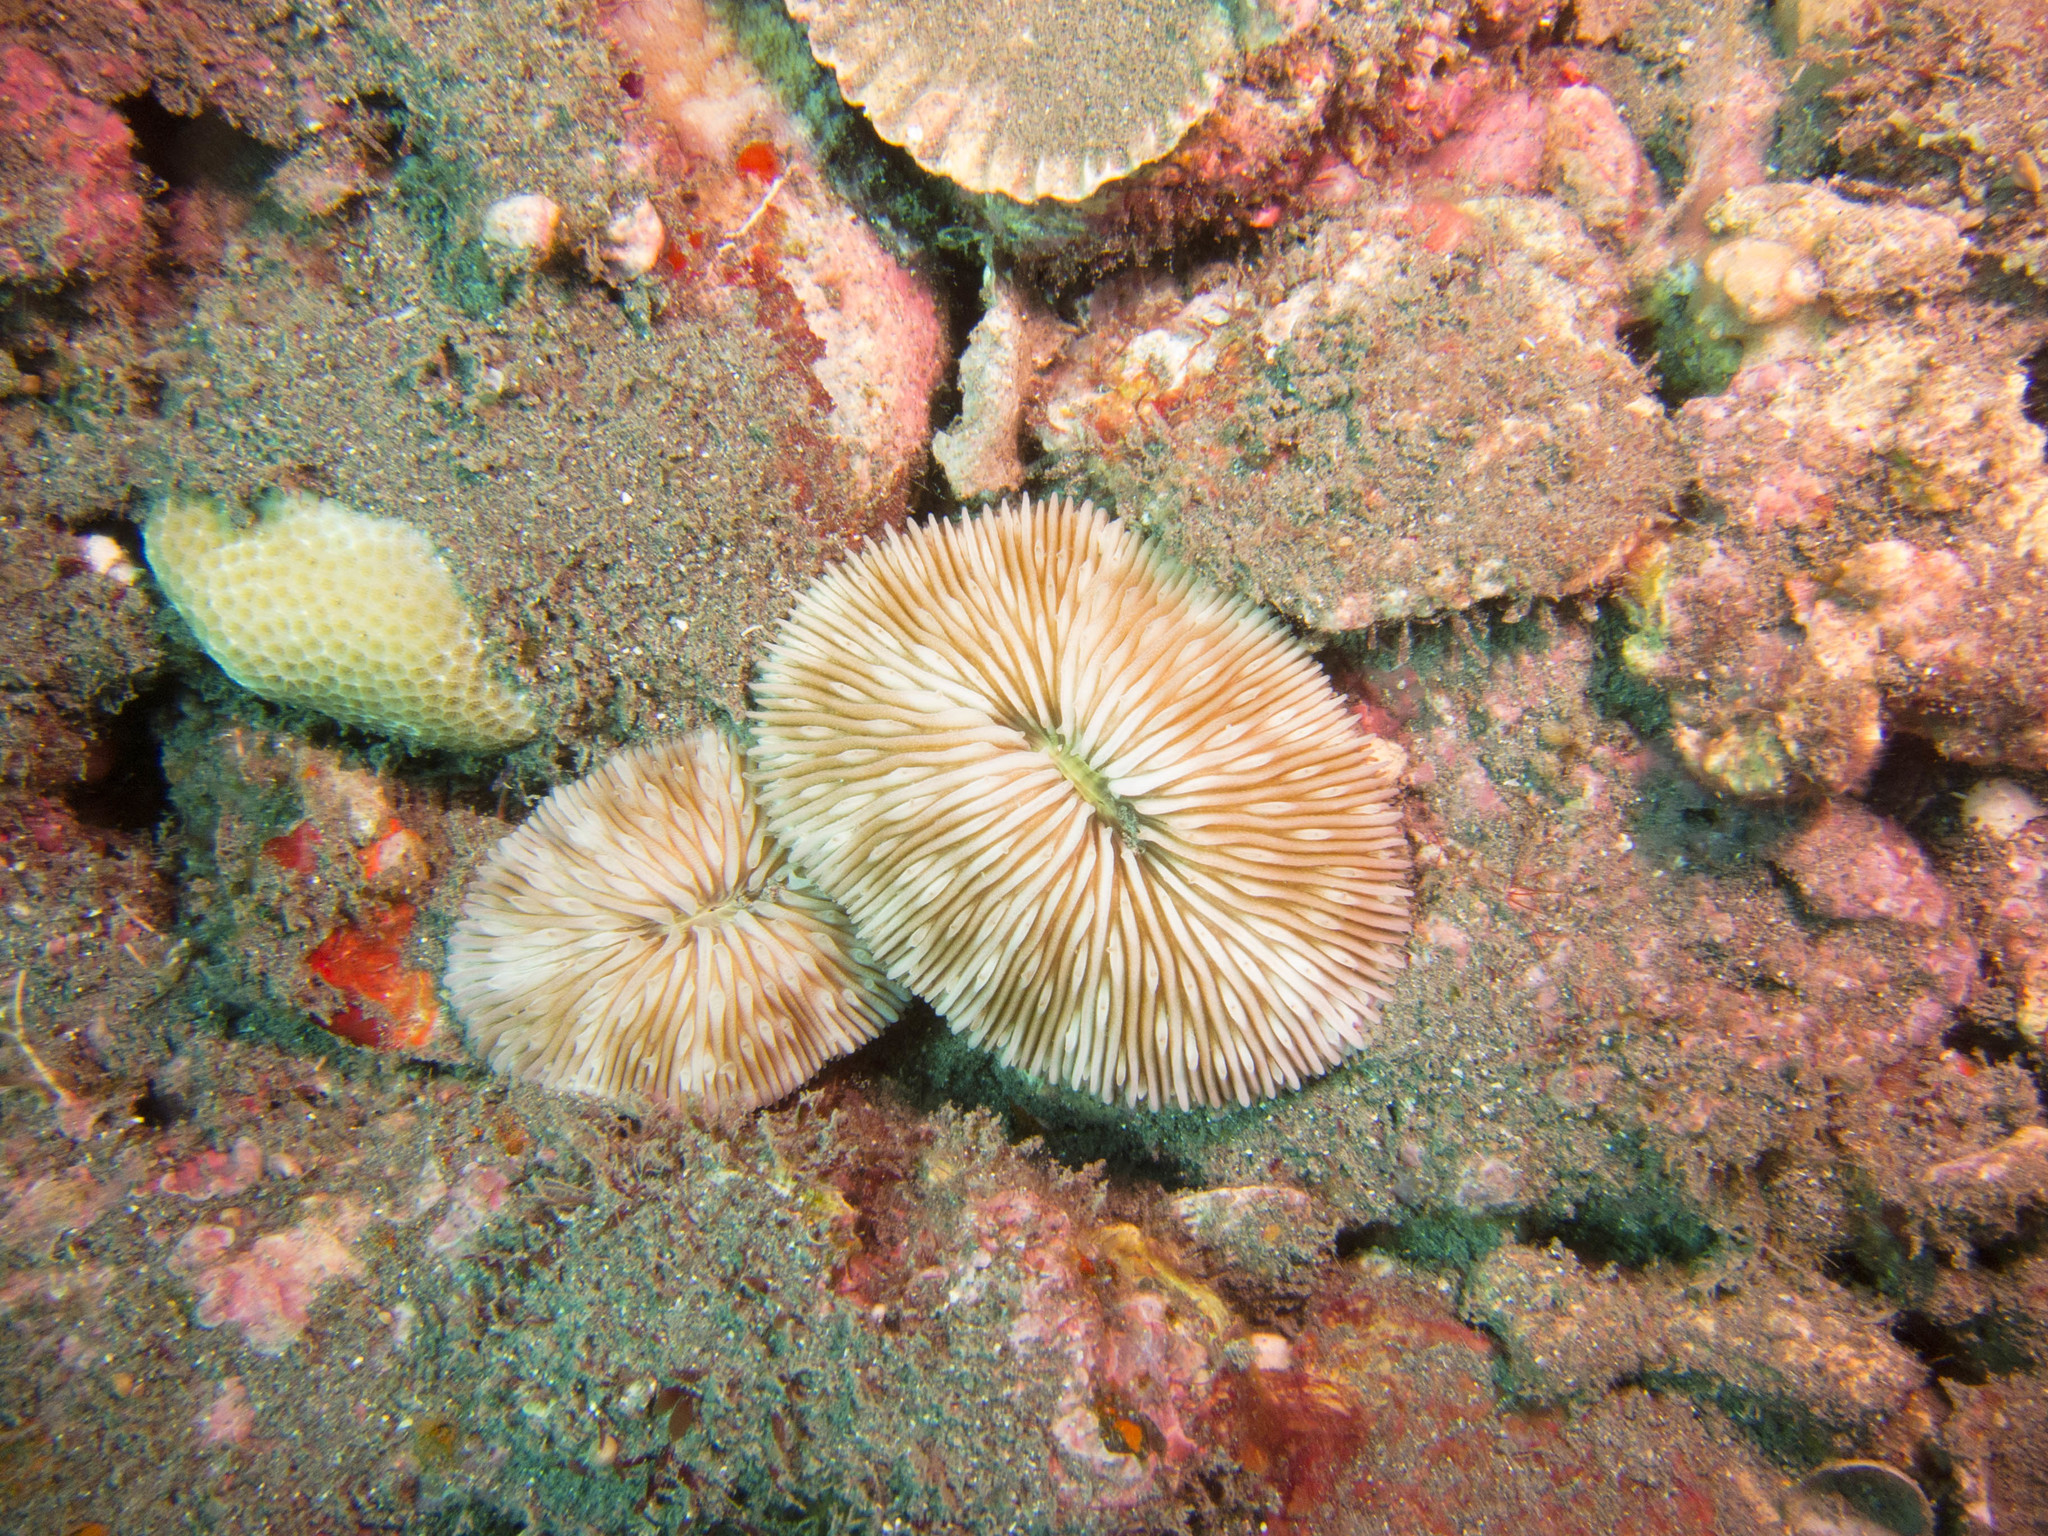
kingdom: Animalia
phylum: Cnidaria
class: Anthozoa
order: Scleractinia
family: Fungiidae
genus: Lobactis
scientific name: Lobactis scutaria
